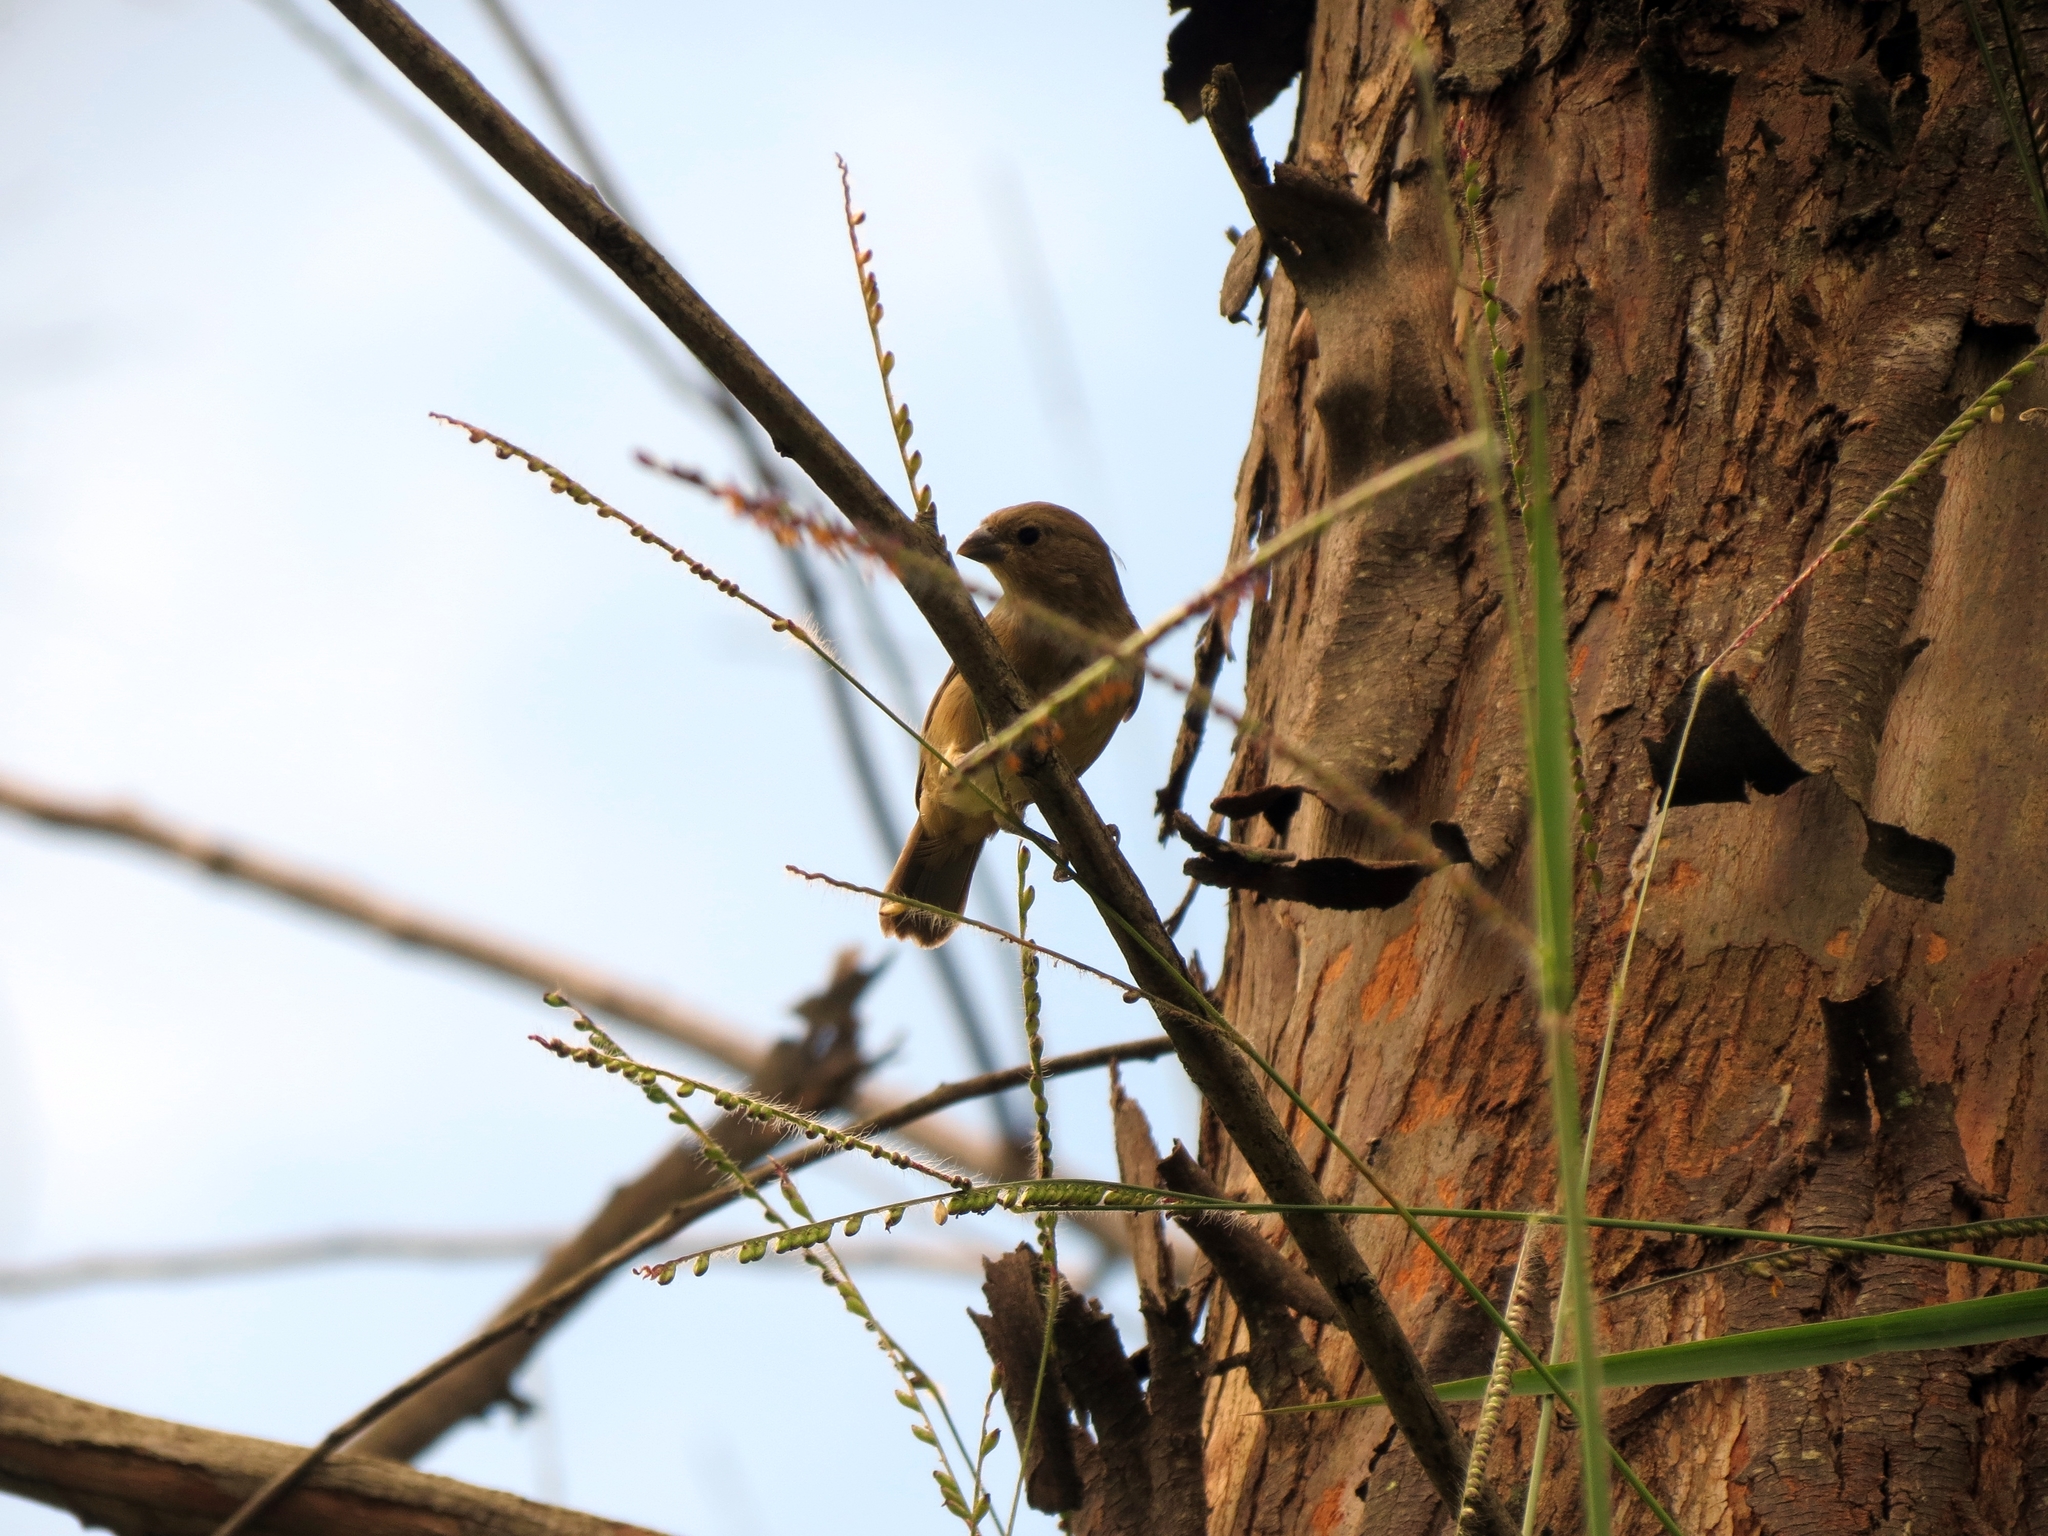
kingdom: Animalia
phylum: Chordata
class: Aves
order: Passeriformes
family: Thraupidae
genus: Sporophila
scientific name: Sporophila nigricollis
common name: Yellow-bellied seedeater
